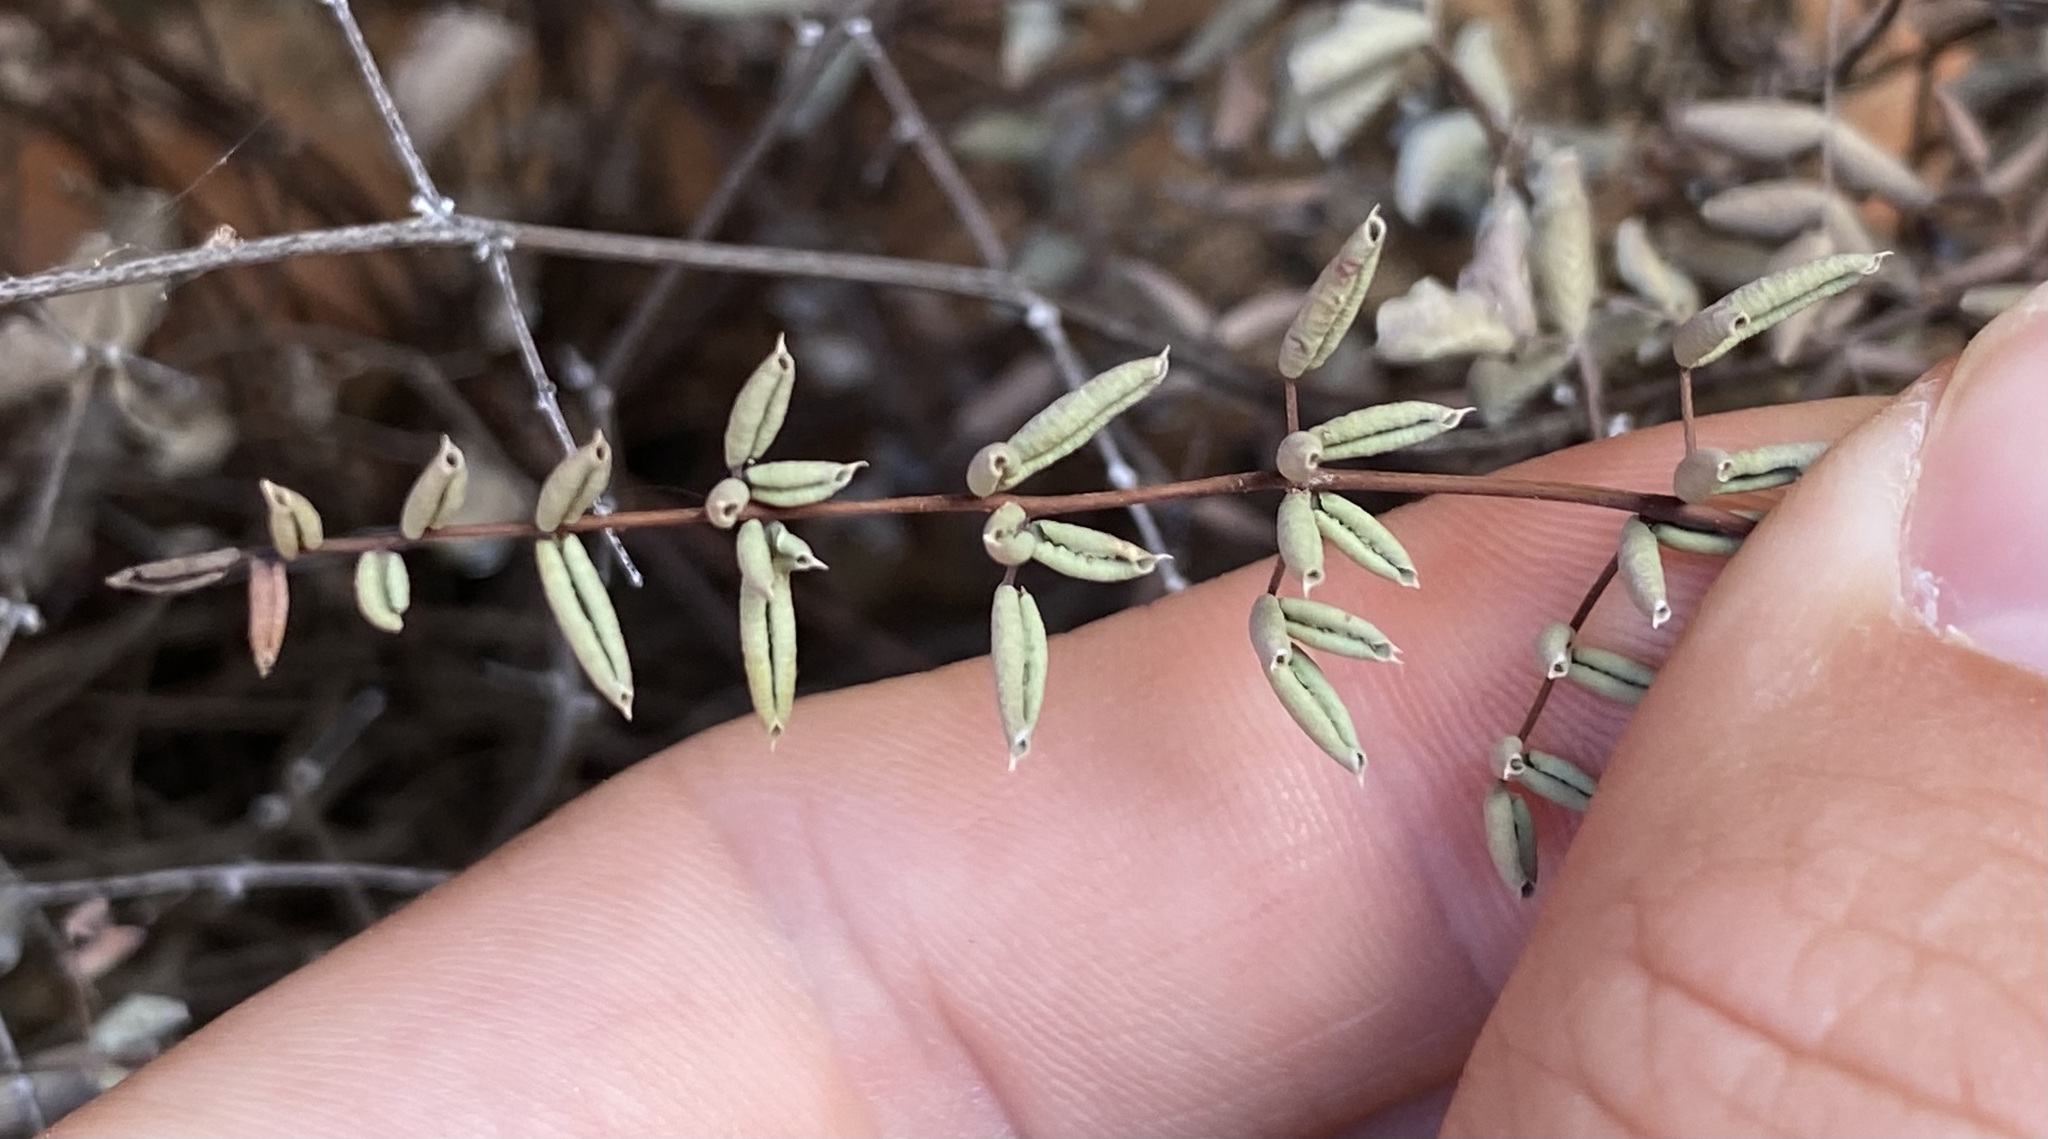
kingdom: Plantae
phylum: Tracheophyta
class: Polypodiopsida
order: Polypodiales
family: Pteridaceae
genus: Pellaea
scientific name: Pellaea truncata
